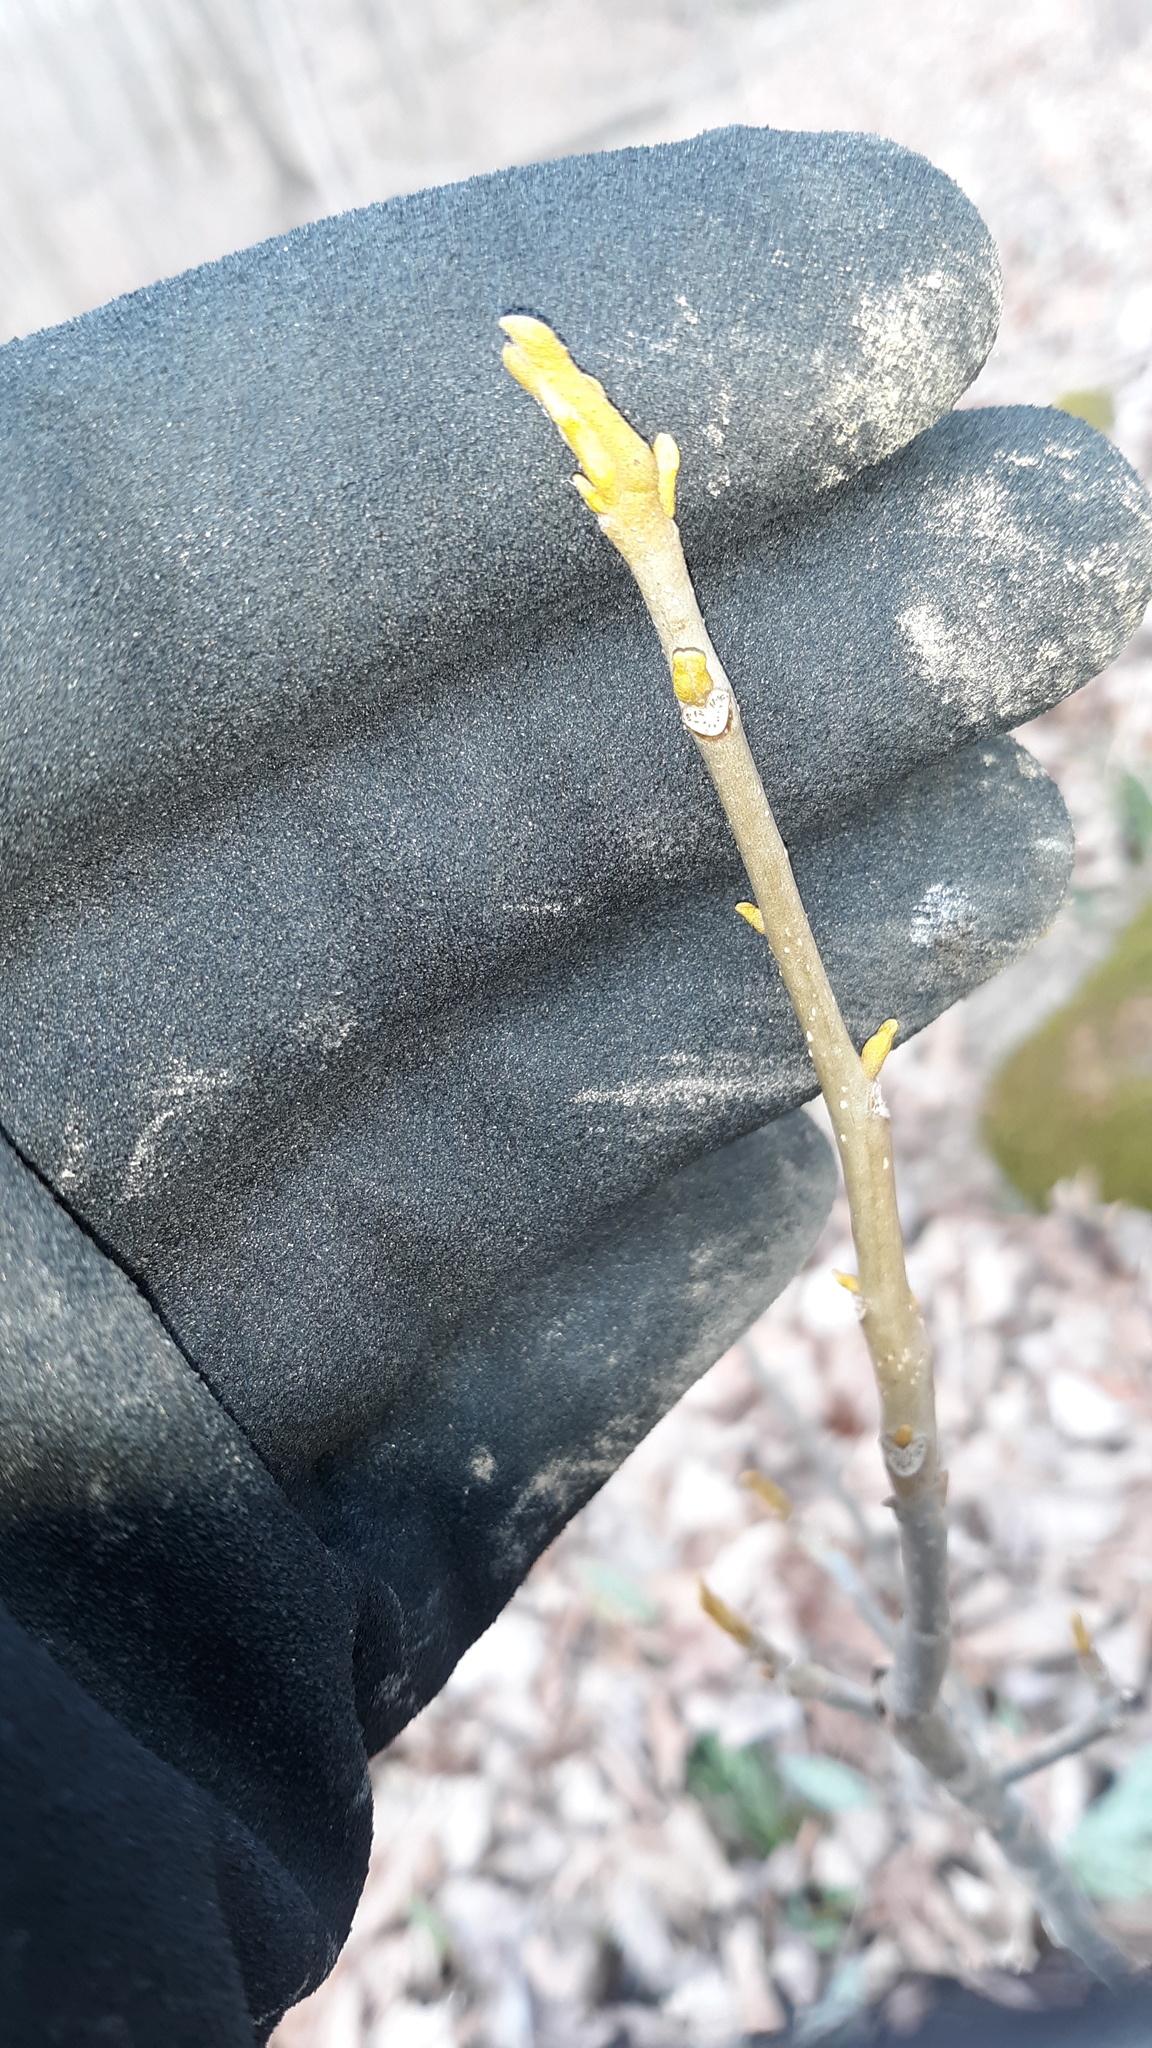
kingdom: Plantae
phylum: Tracheophyta
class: Magnoliopsida
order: Fagales
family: Juglandaceae
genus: Carya
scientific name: Carya cordiformis
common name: Bitternut hickory
